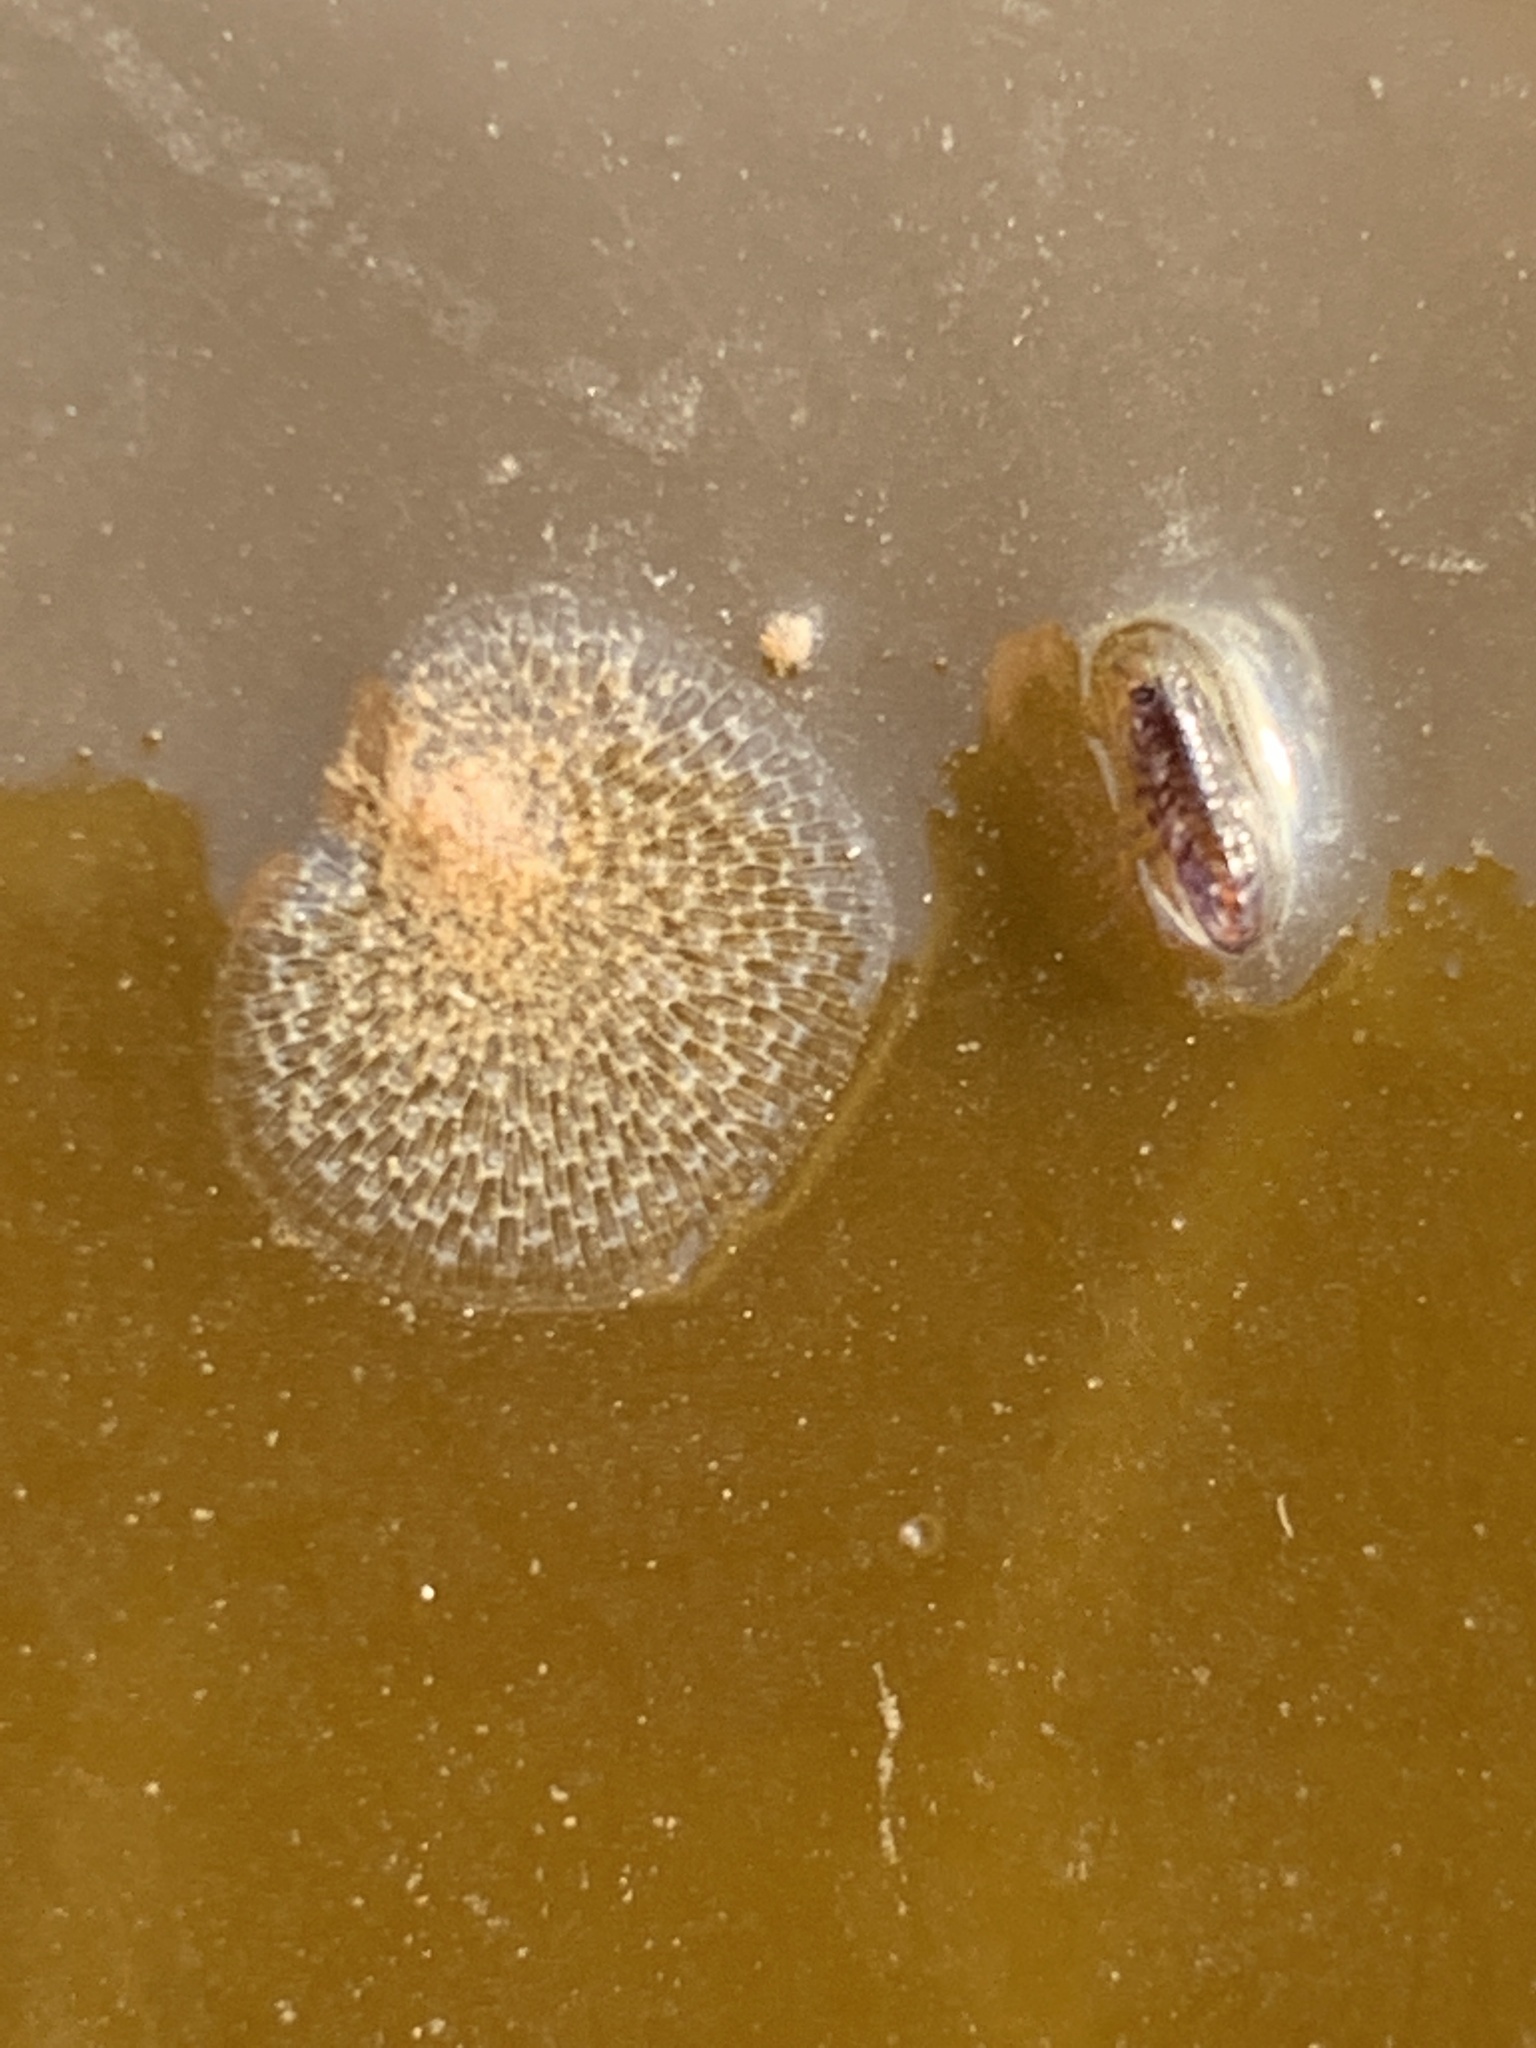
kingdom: Animalia
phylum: Bryozoa
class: Gymnolaemata
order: Cheilostomatida
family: Membraniporidae
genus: Membranipora
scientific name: Membranipora membranacea
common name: Sea mat
